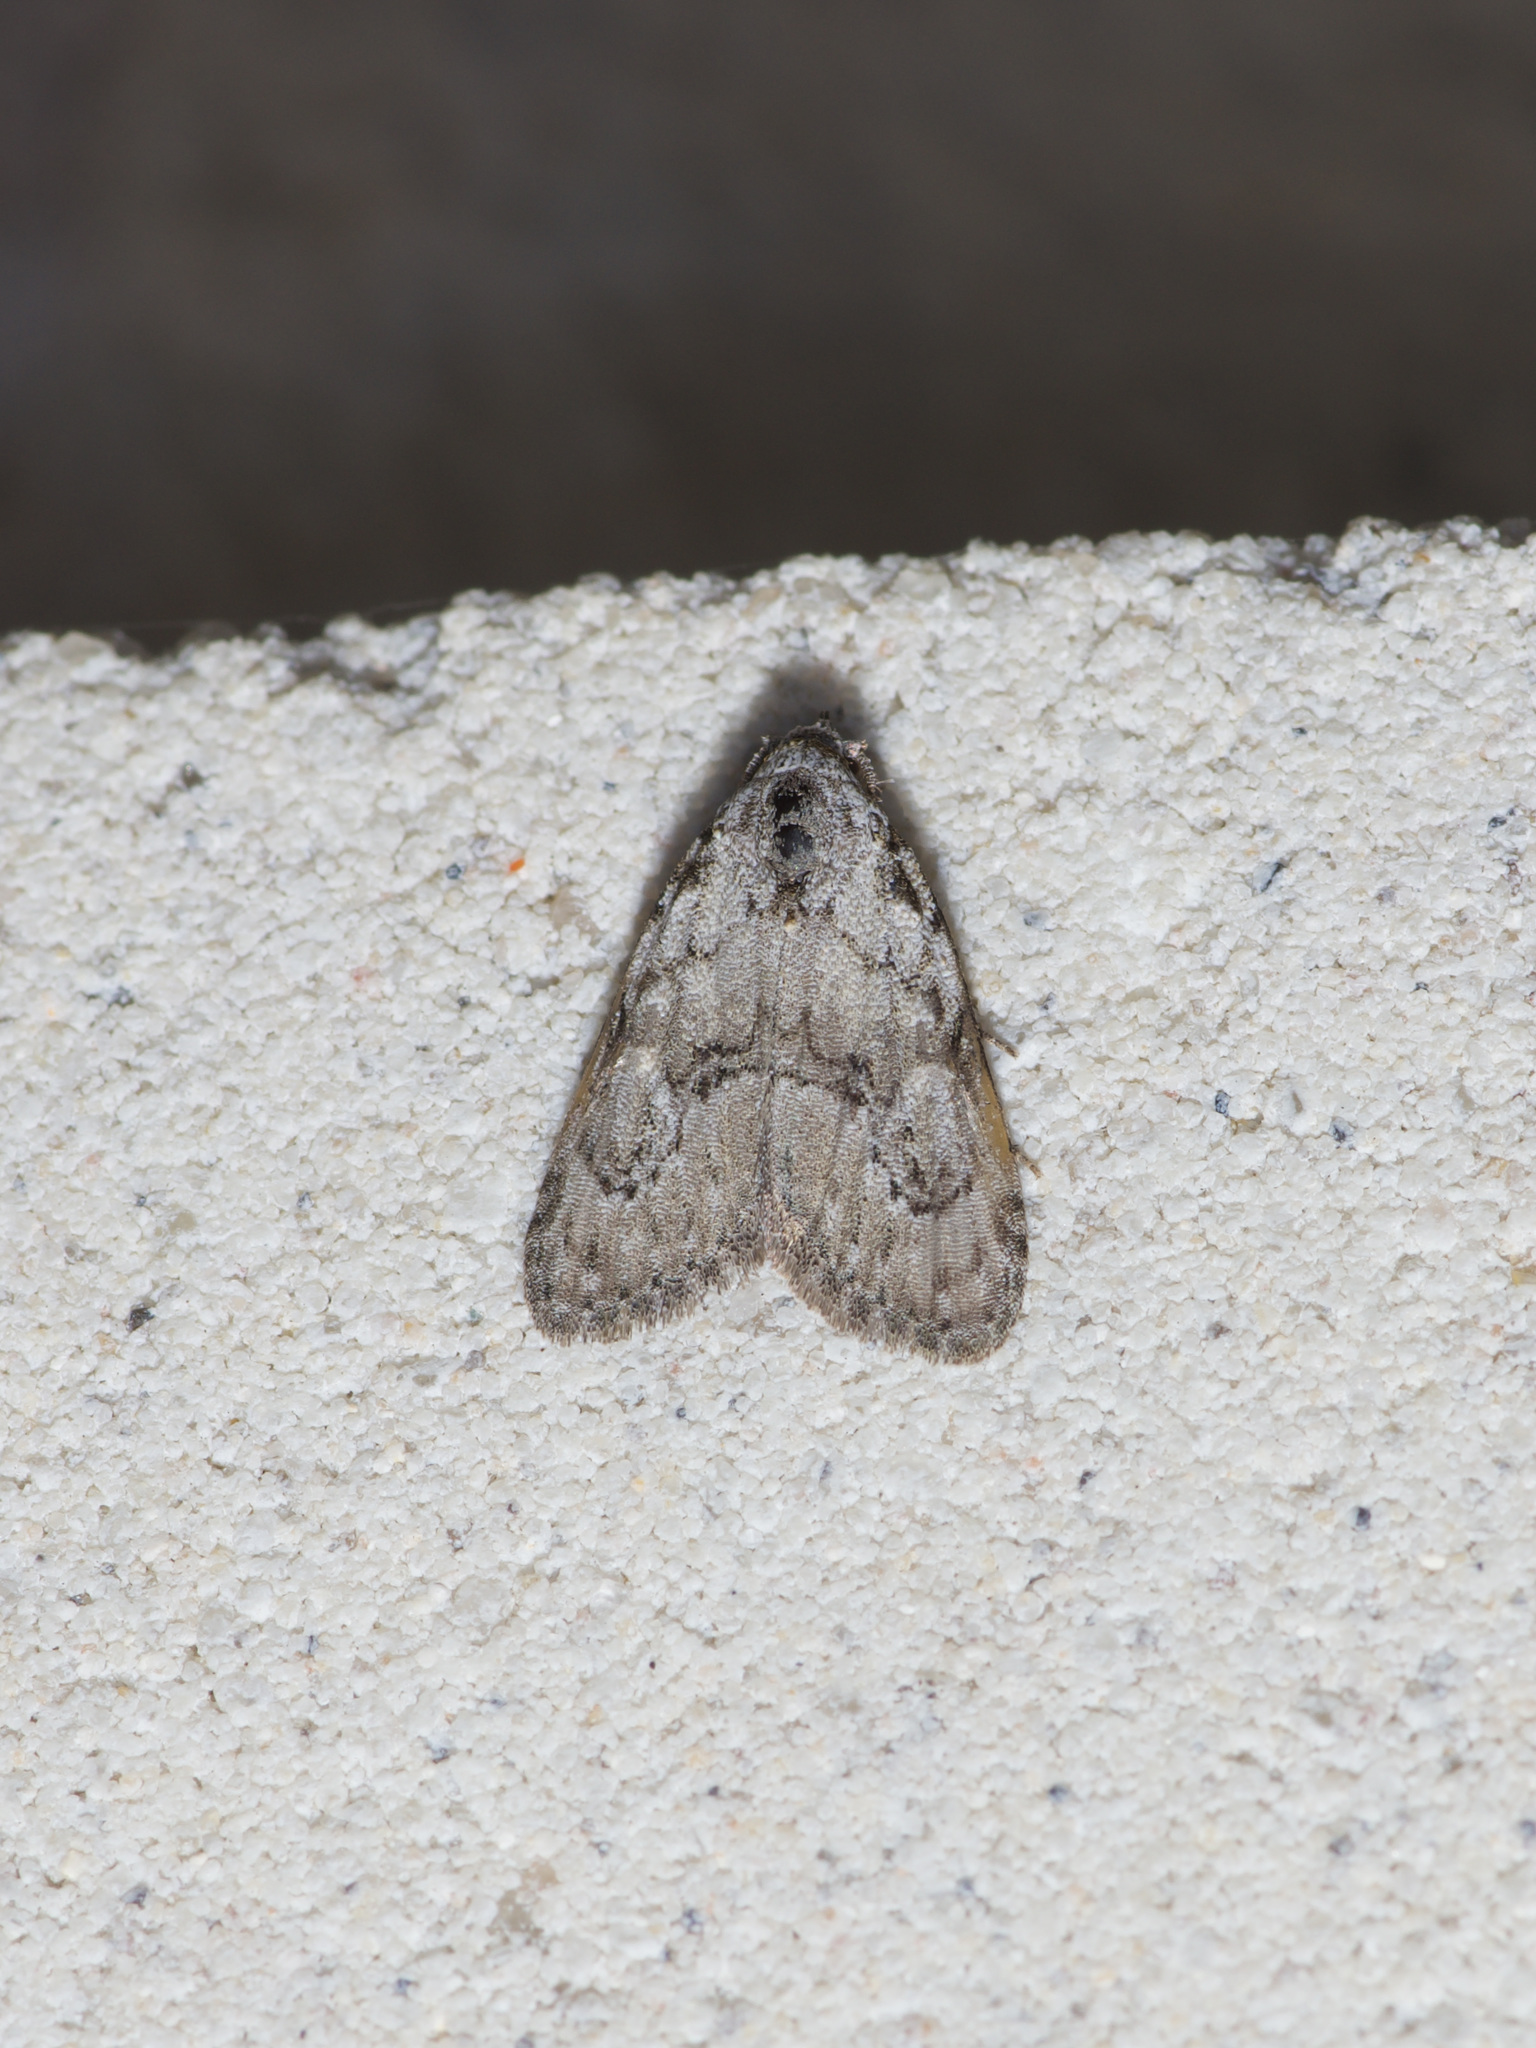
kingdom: Animalia
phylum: Arthropoda
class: Insecta
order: Lepidoptera
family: Nolidae
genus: Meganola
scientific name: Meganola minuscula
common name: Confused meganola moth
